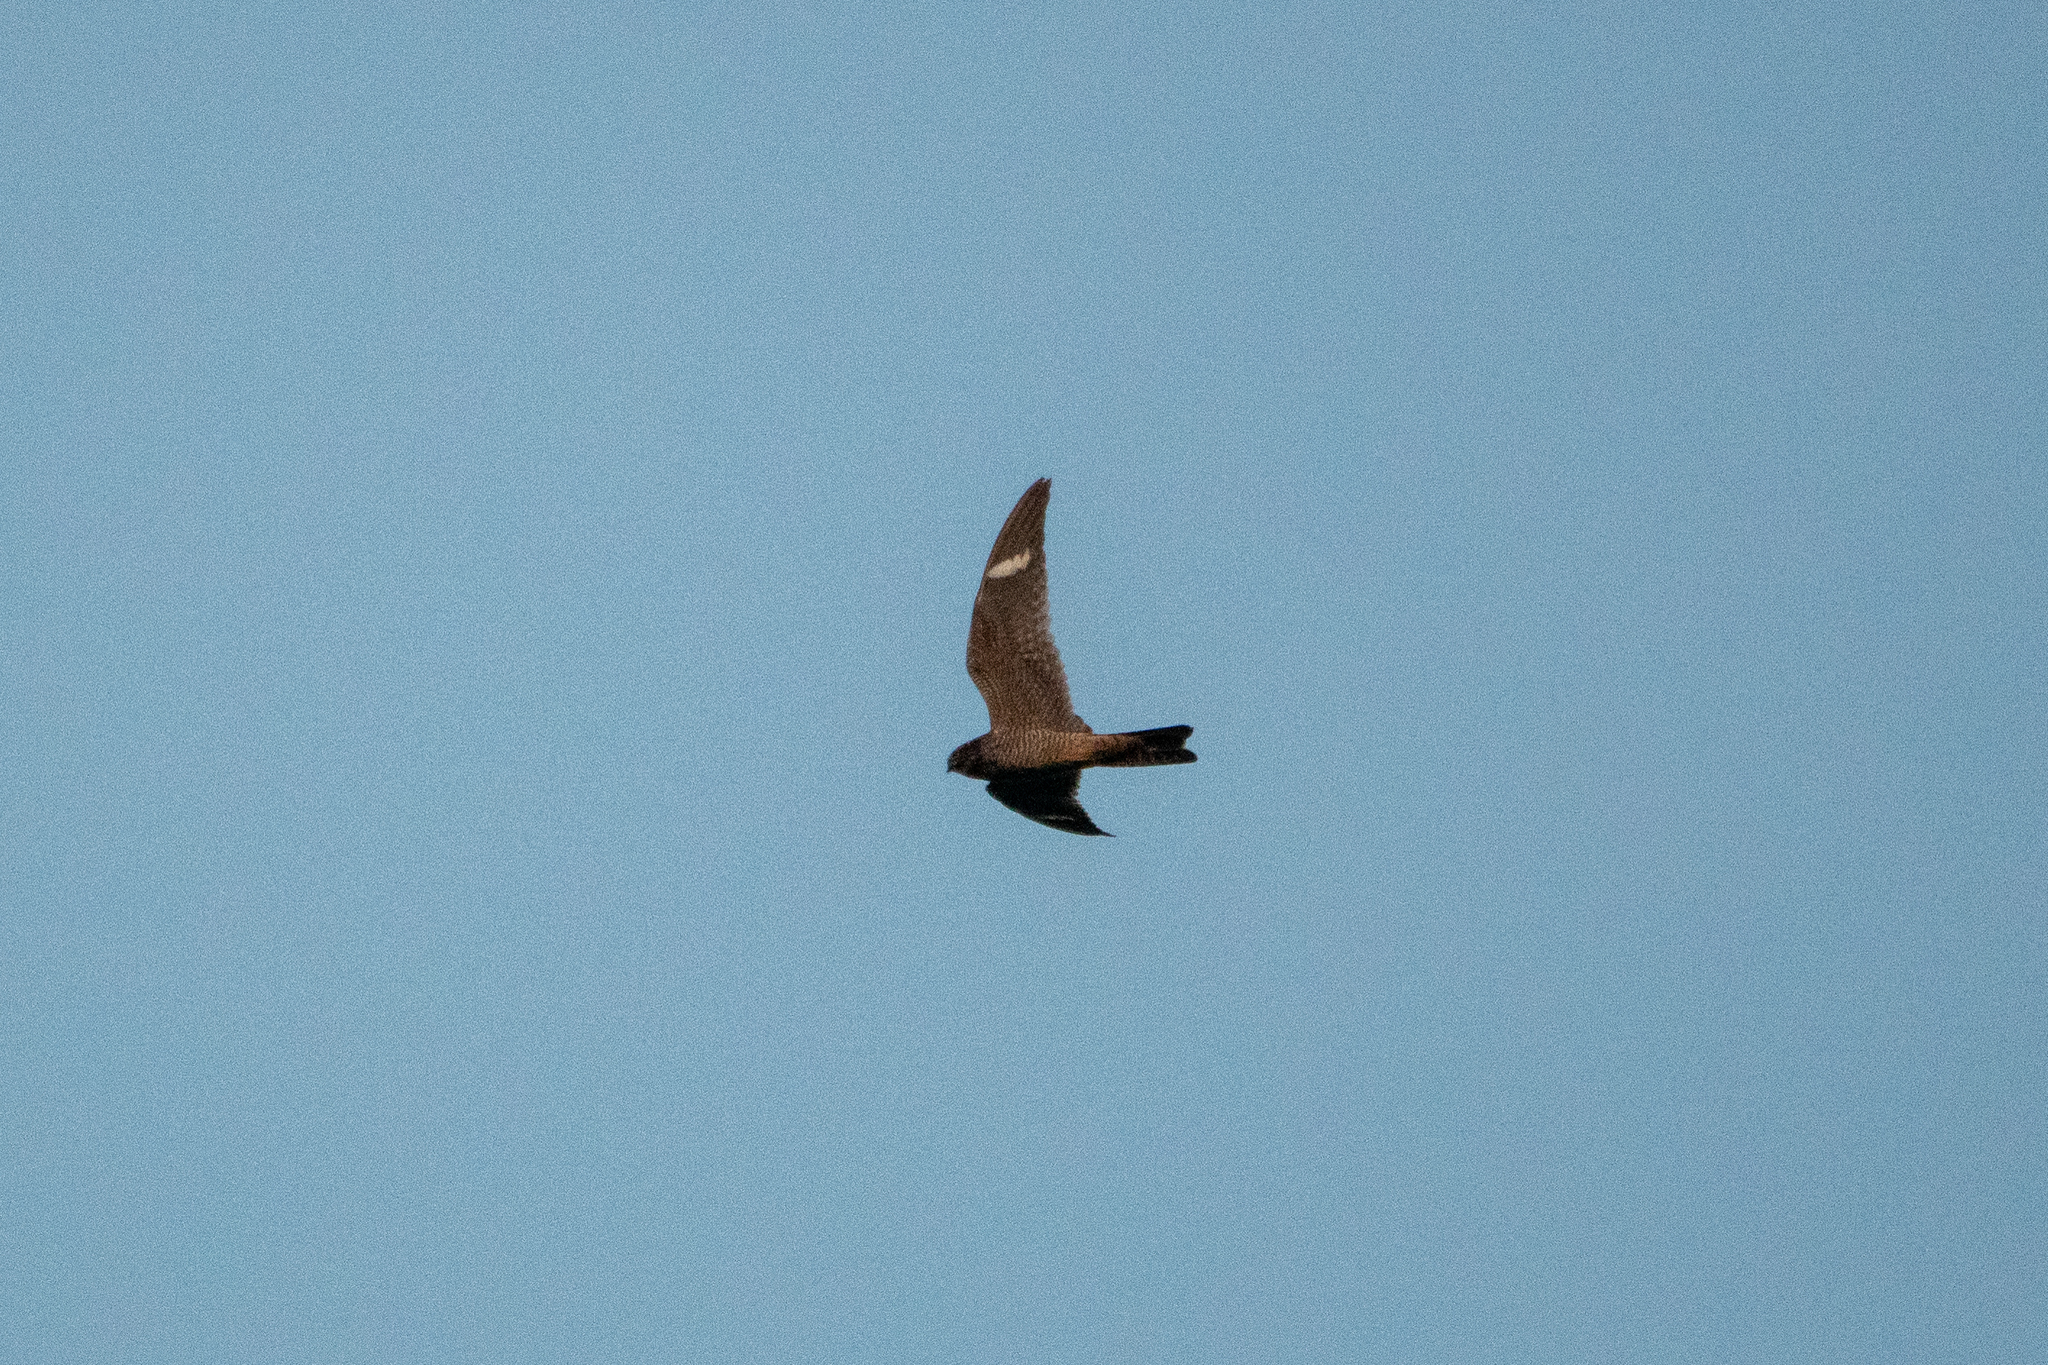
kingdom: Animalia
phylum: Chordata
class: Aves
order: Caprimulgiformes
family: Caprimulgidae
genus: Chordeiles
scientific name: Chordeiles minor
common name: Common nighthawk
